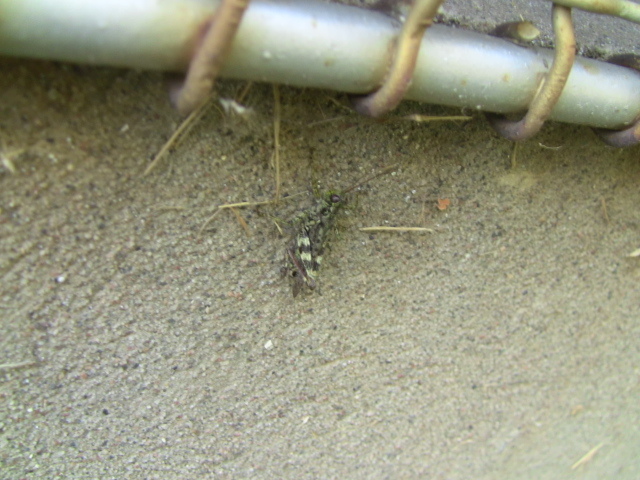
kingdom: Animalia
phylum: Arthropoda
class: Insecta
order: Orthoptera
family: Acrididae
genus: Melanoplus
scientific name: Melanoplus punctulatus
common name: Pine-tree spur-throat grasshopper
